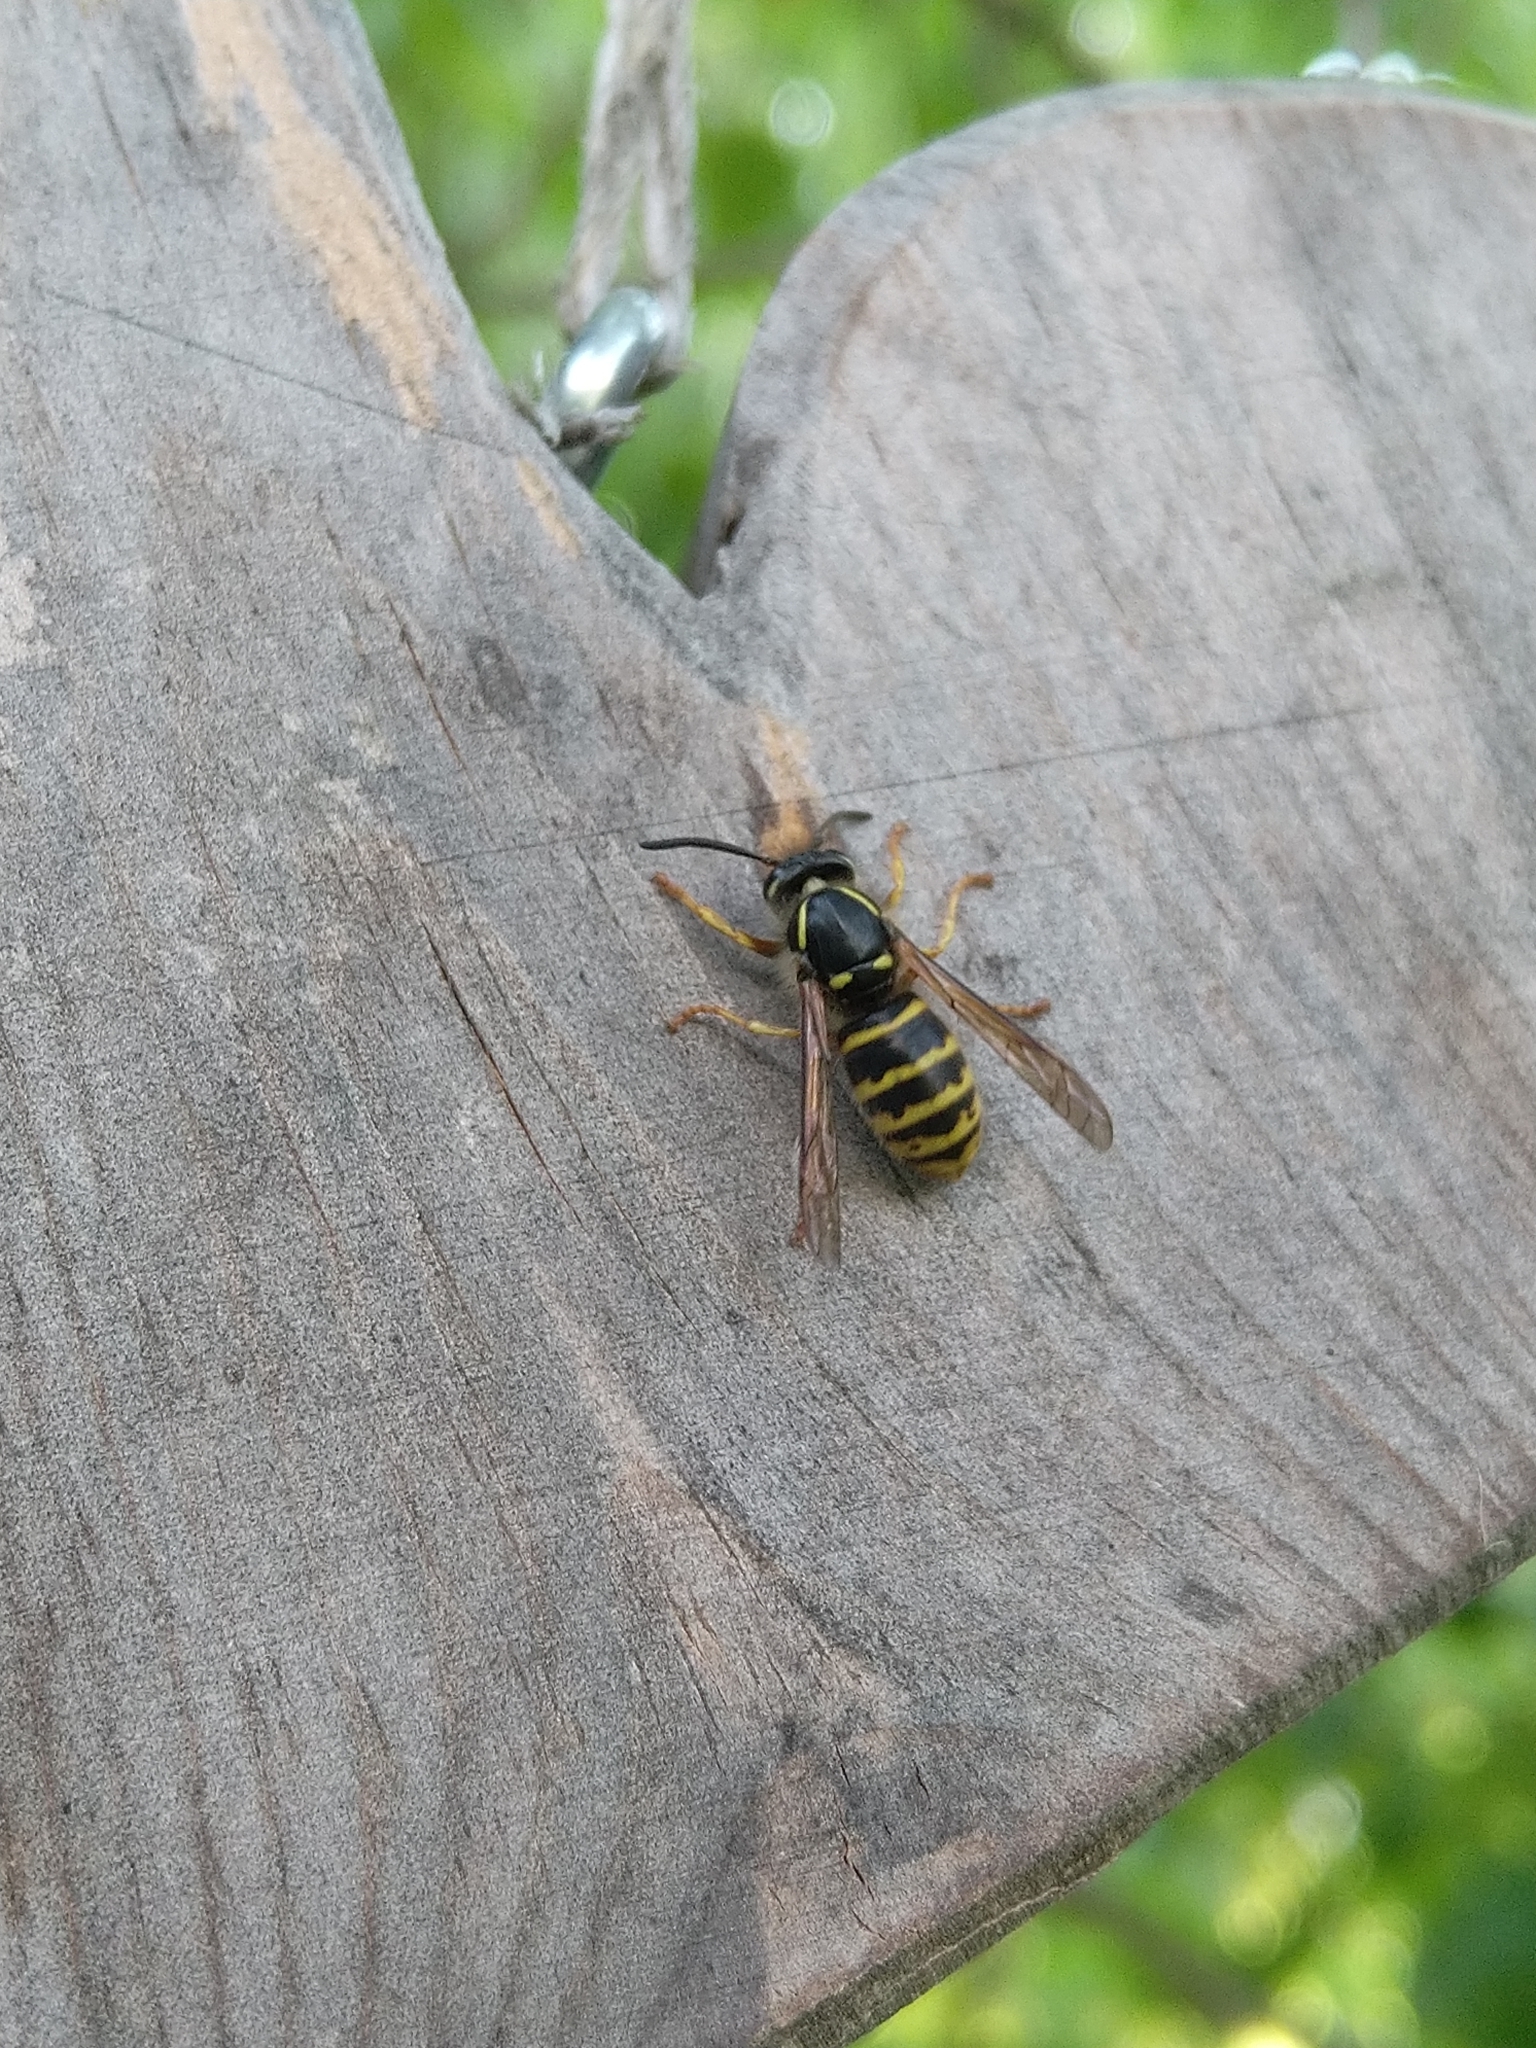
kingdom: Animalia
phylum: Arthropoda
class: Insecta
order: Hymenoptera
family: Vespidae
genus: Dolichovespula
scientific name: Dolichovespula saxonica
